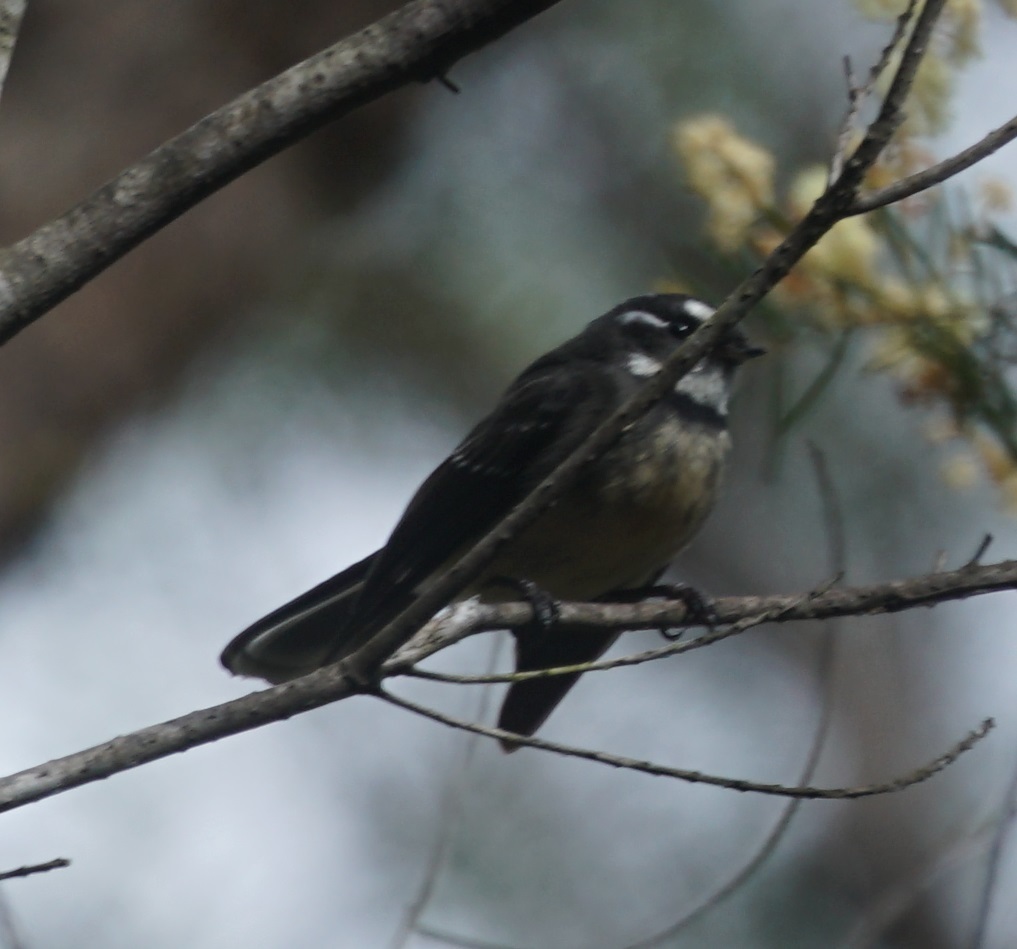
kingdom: Animalia
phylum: Chordata
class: Aves
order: Passeriformes
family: Rhipiduridae
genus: Rhipidura
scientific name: Rhipidura albiscapa
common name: Grey fantail
